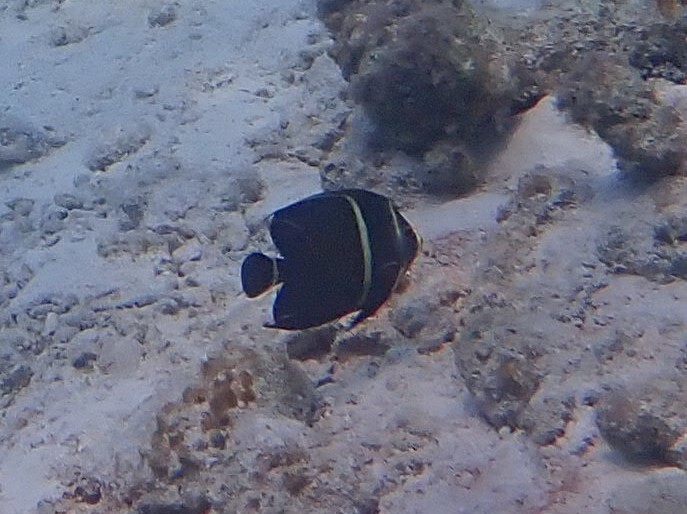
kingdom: Animalia
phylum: Chordata
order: Perciformes
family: Pomacanthidae
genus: Pomacanthus
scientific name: Pomacanthus paru
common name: French angelfish
